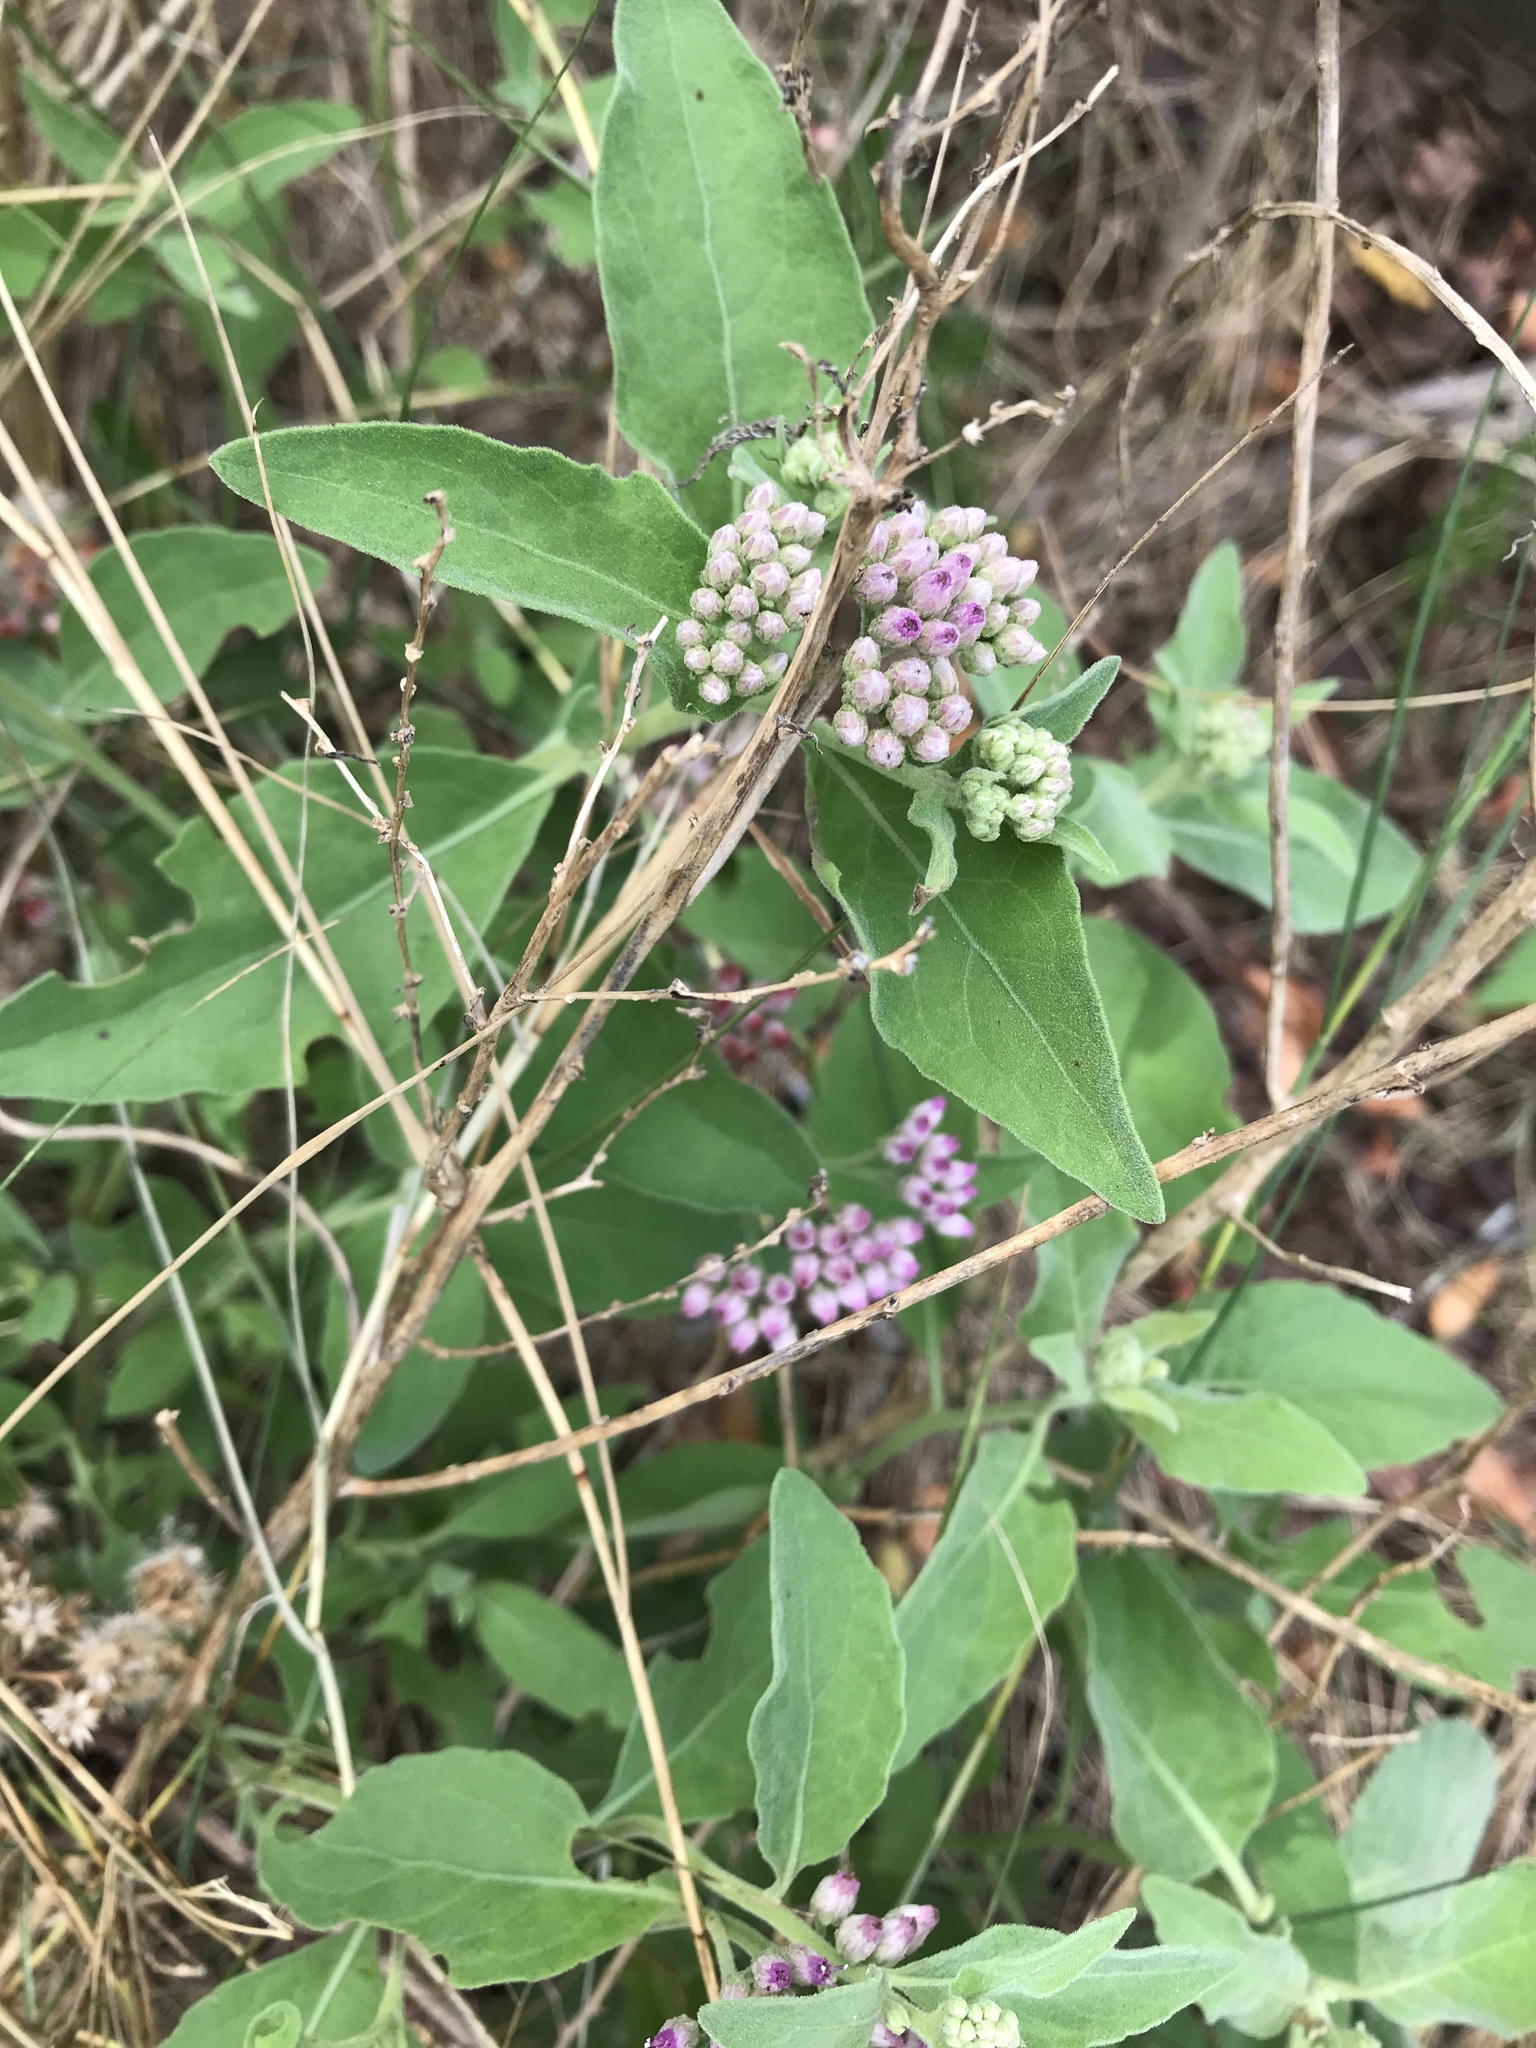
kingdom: Plantae
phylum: Tracheophyta
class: Magnoliopsida
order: Asterales
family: Asteraceae
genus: Pluchea
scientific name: Pluchea odorata
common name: Saltmarsh fleabane
